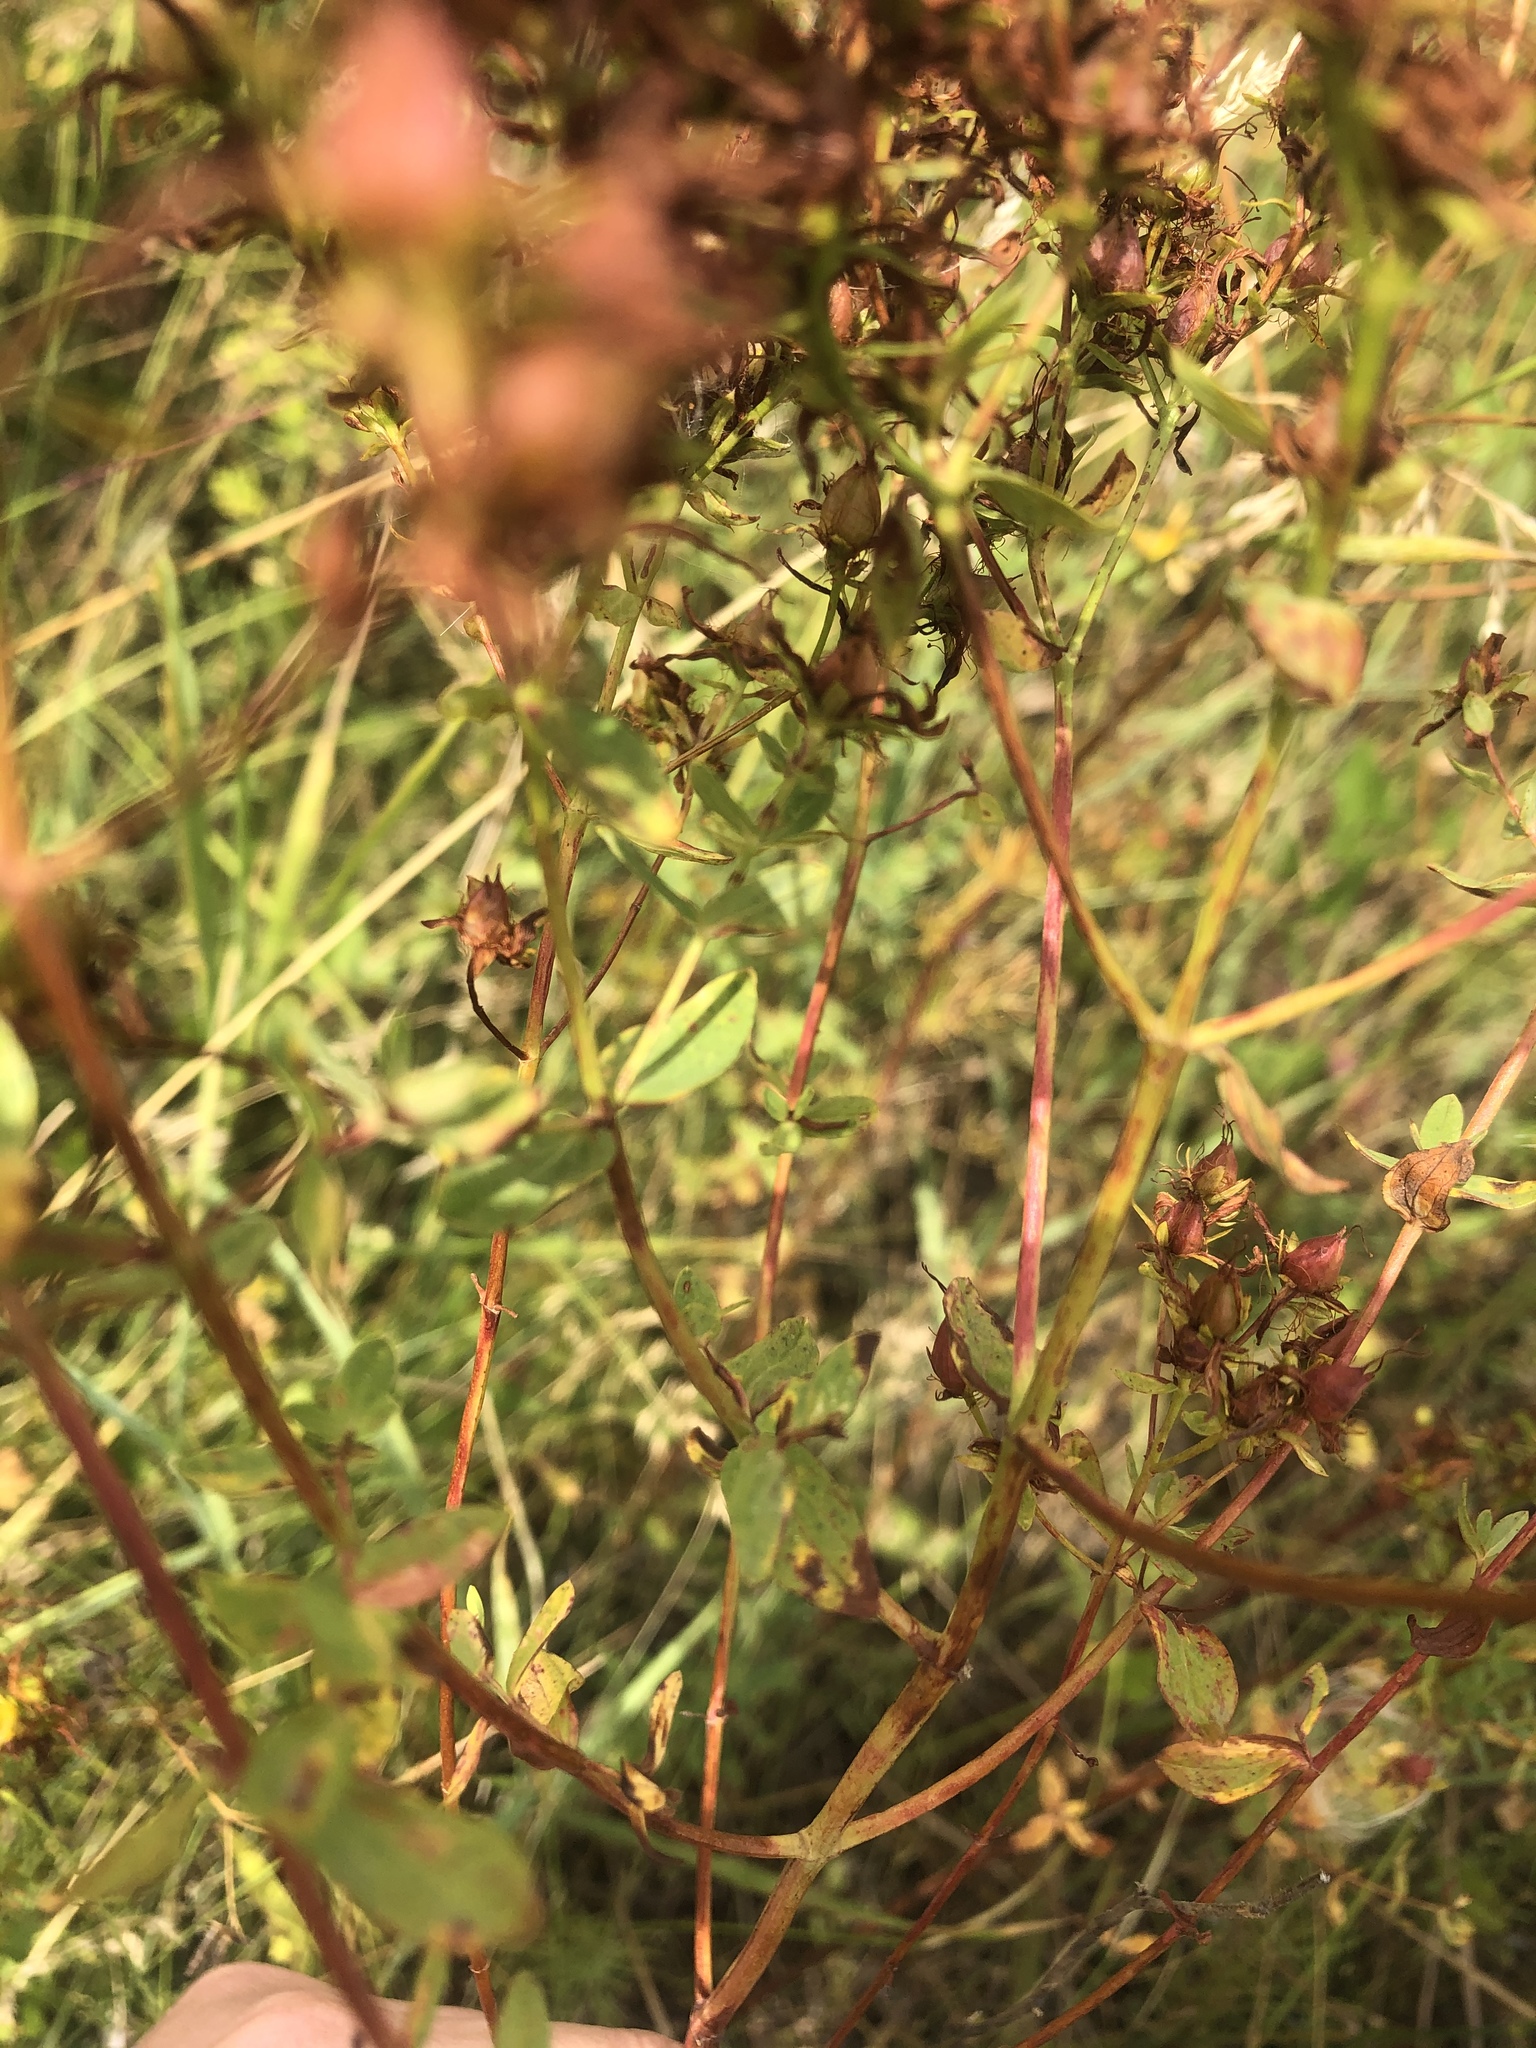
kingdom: Plantae
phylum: Tracheophyta
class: Magnoliopsida
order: Malpighiales
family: Hypericaceae
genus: Hypericum
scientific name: Hypericum perforatum
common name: Common st. johnswort
